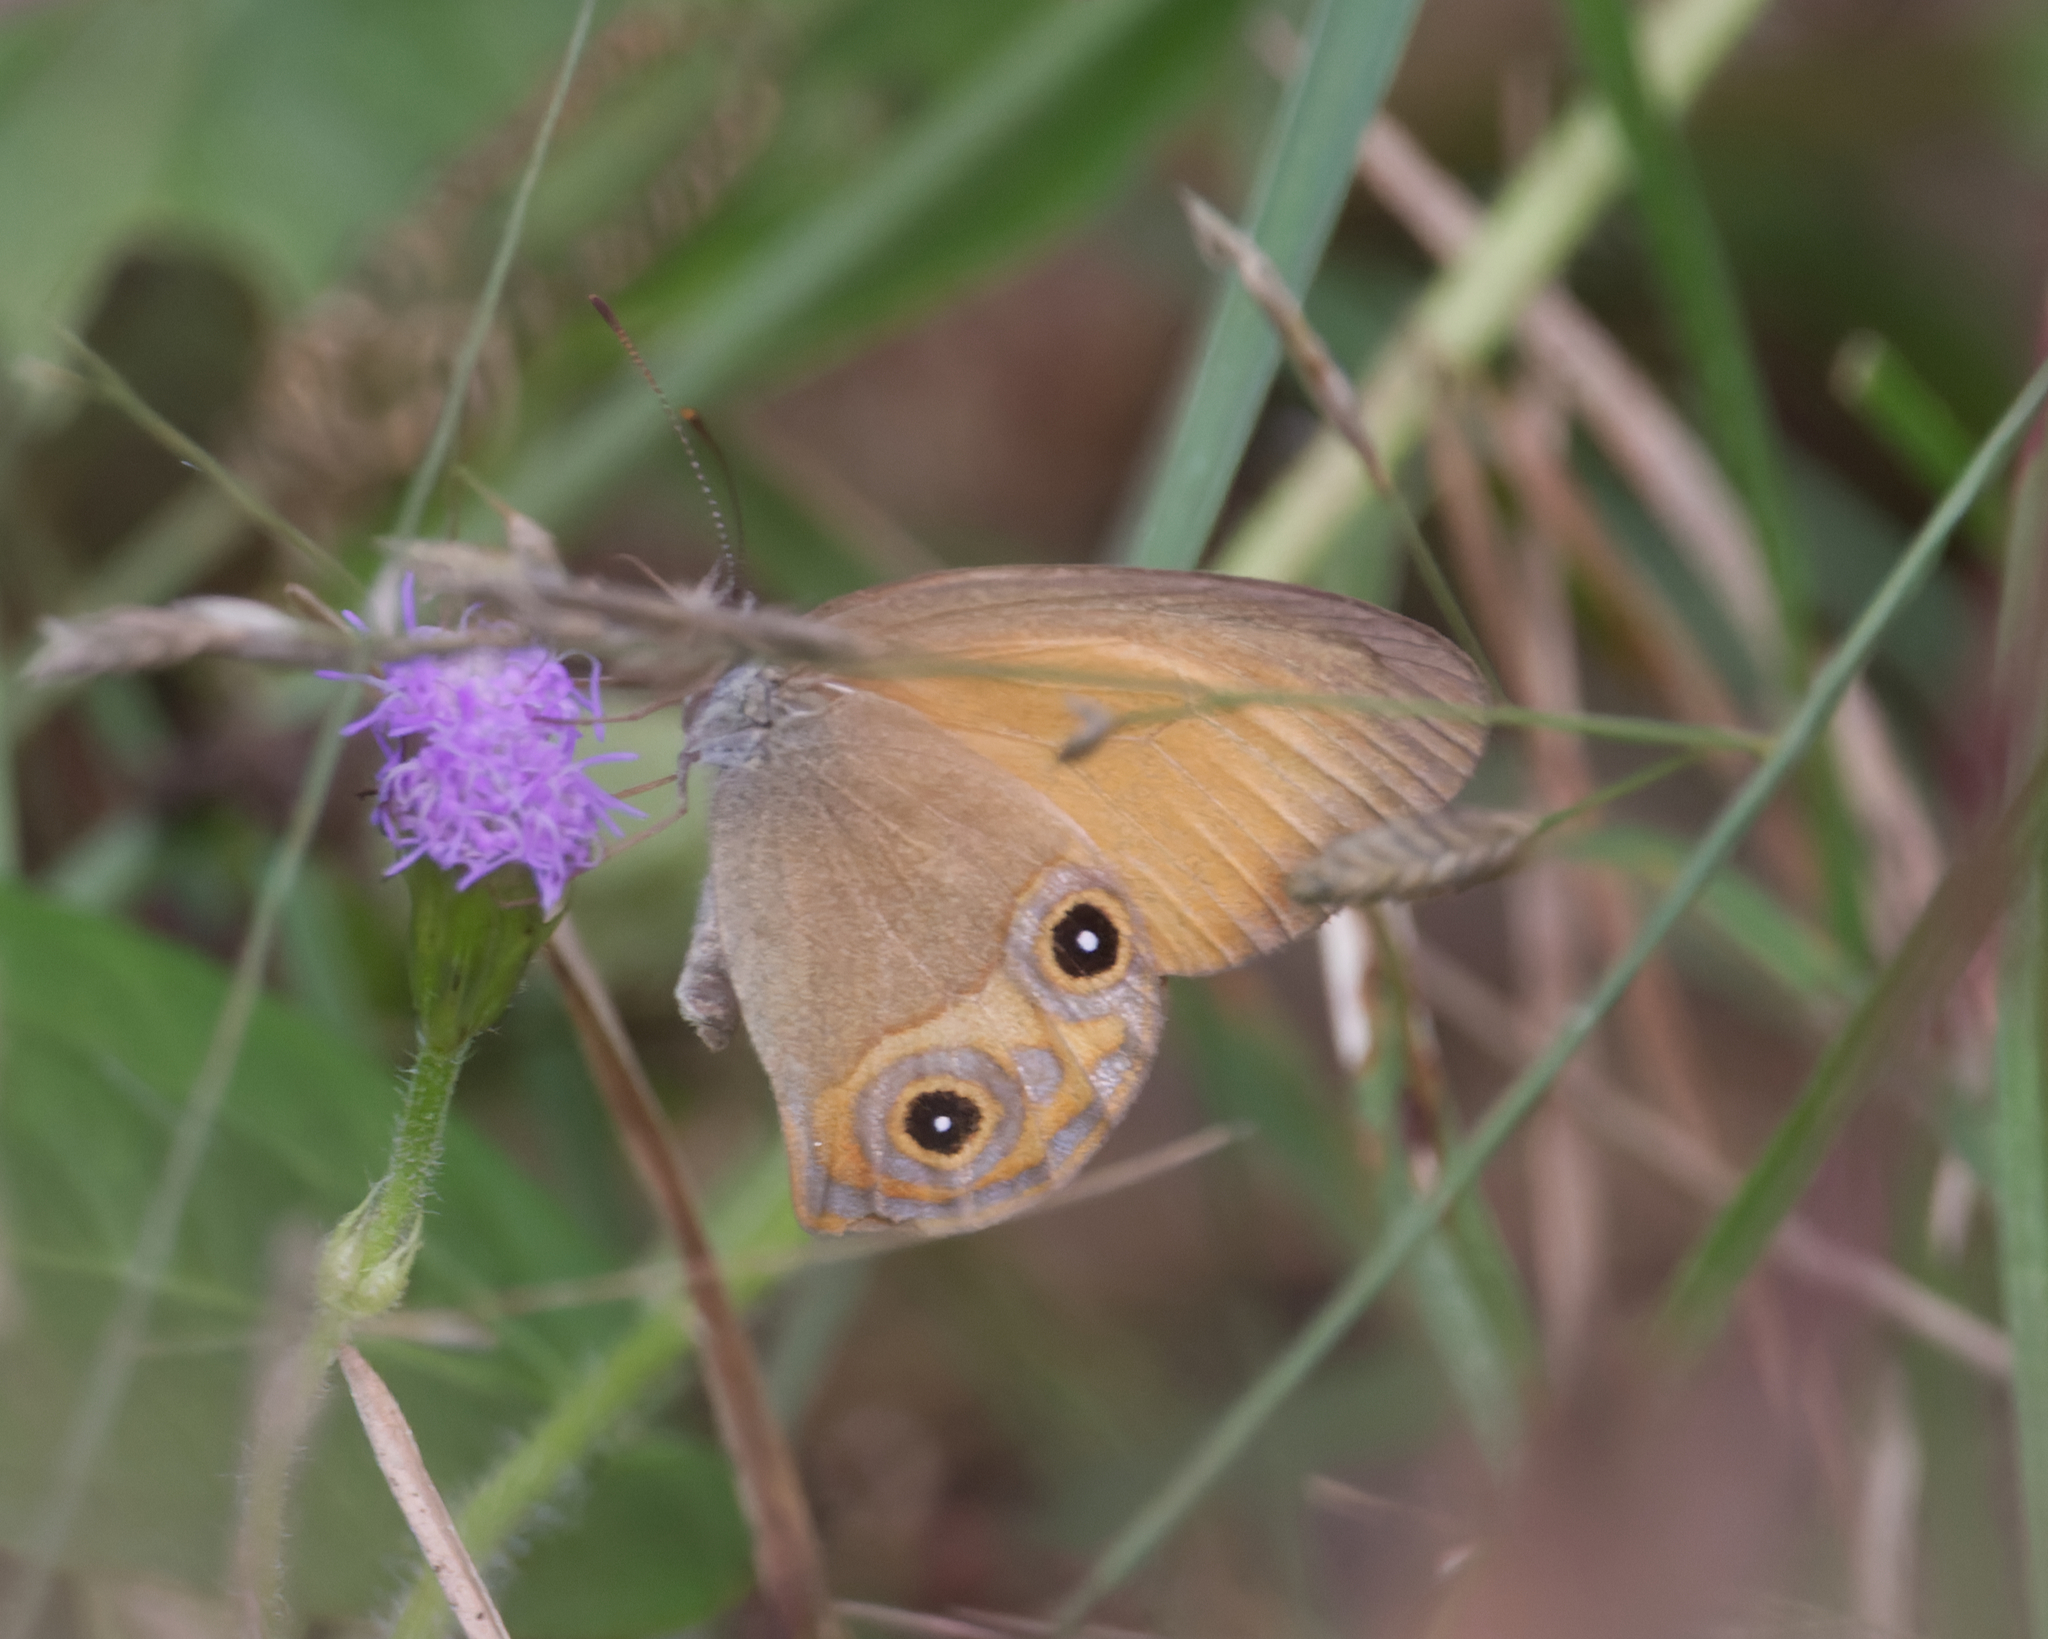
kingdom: Animalia
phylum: Arthropoda
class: Insecta
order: Lepidoptera
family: Nymphalidae
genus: Hypocysta
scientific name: Hypocysta adiante
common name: Orange ringlet
